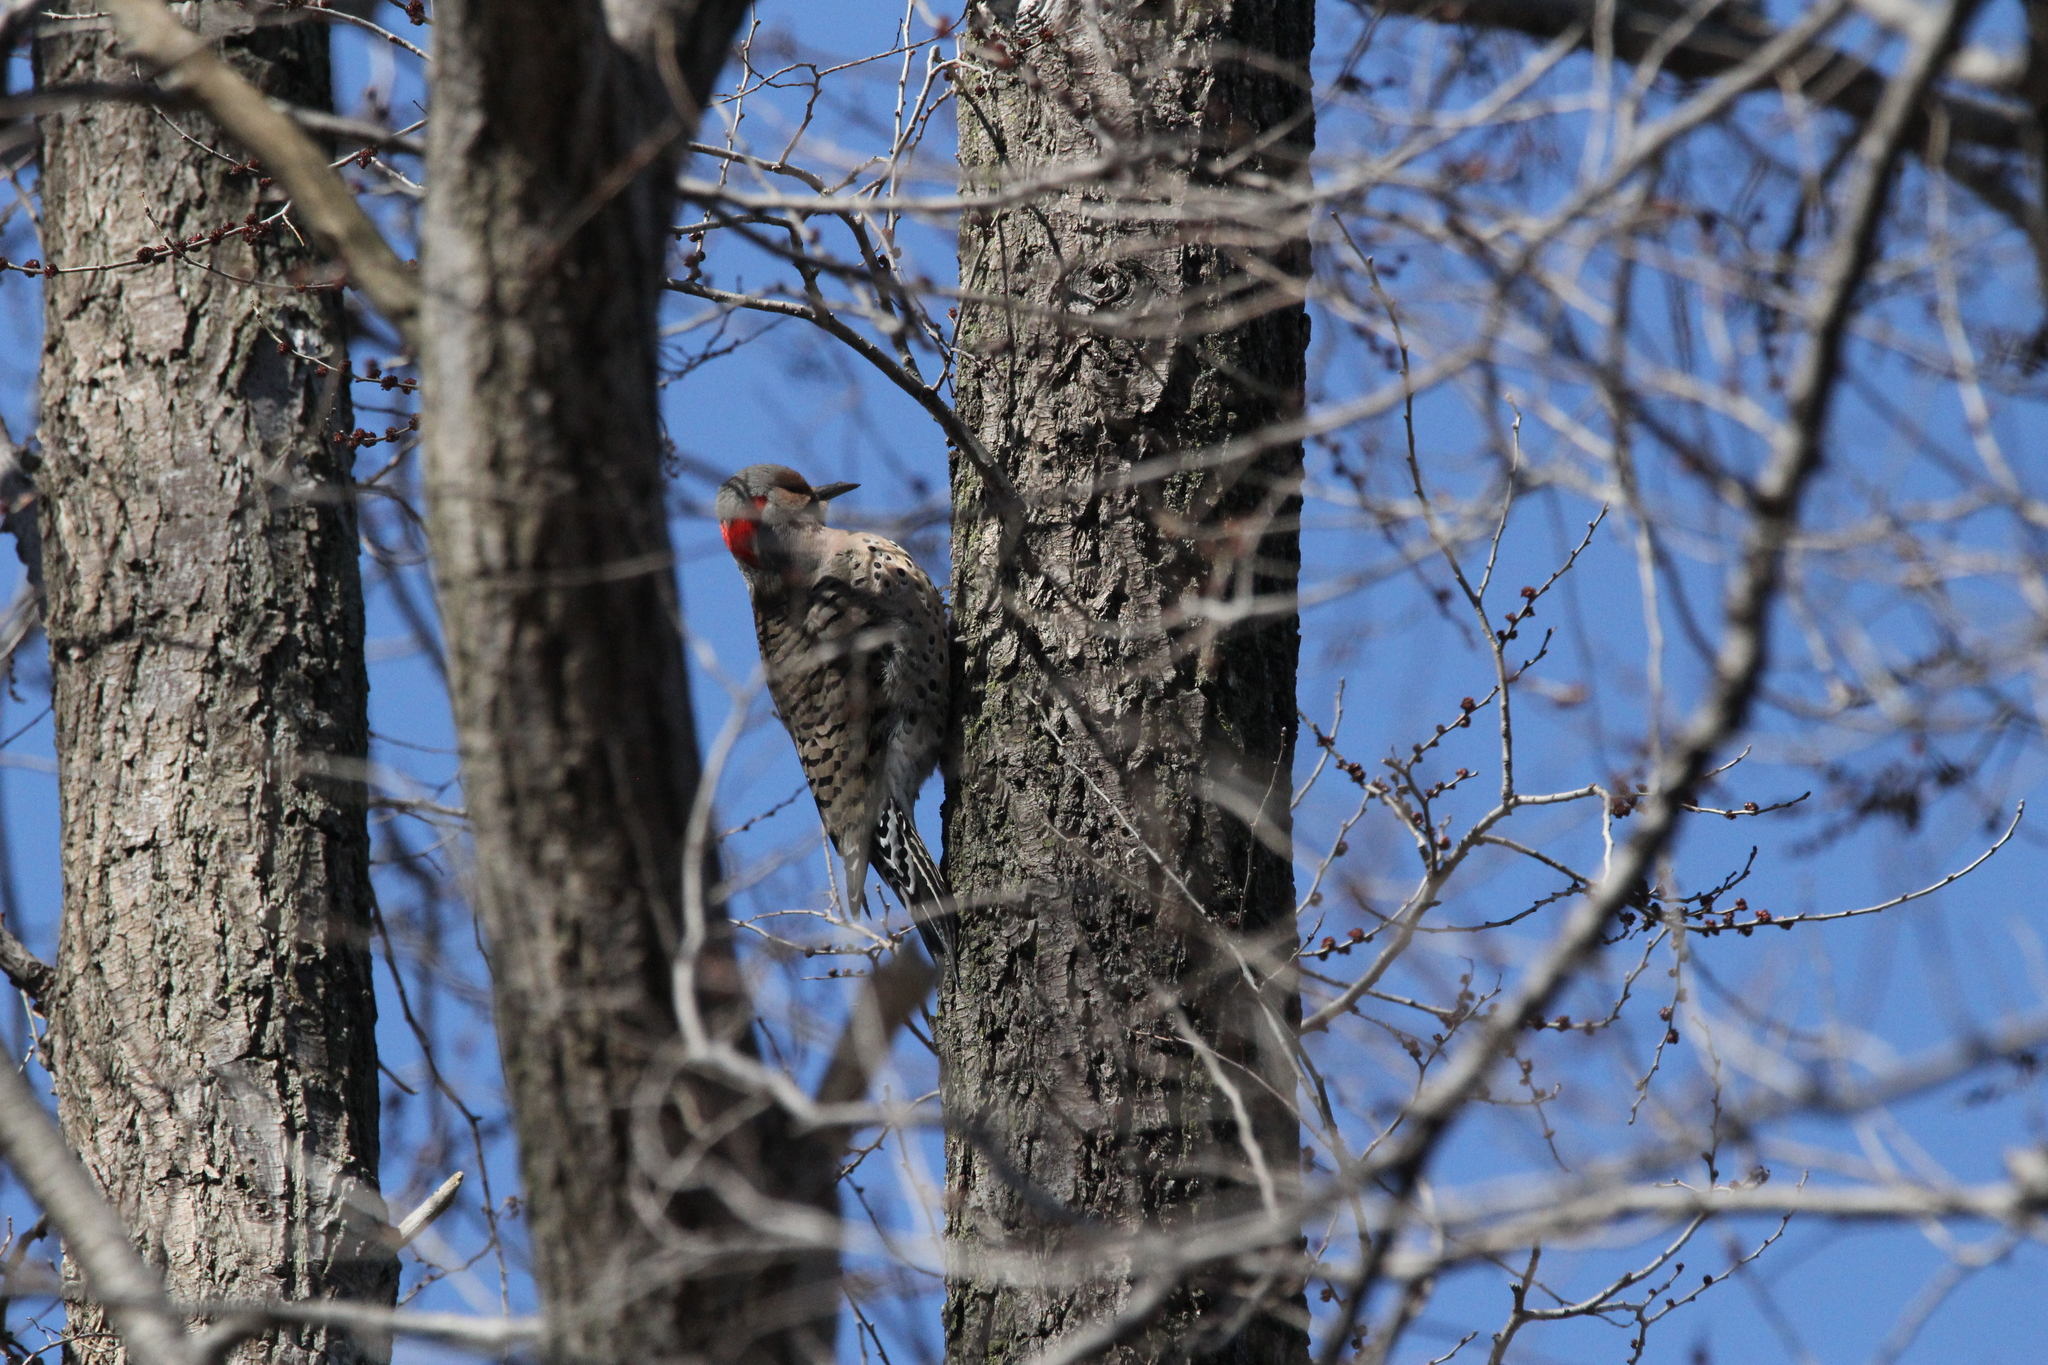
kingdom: Animalia
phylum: Chordata
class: Aves
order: Piciformes
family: Picidae
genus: Colaptes
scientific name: Colaptes auratus
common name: Northern flicker
